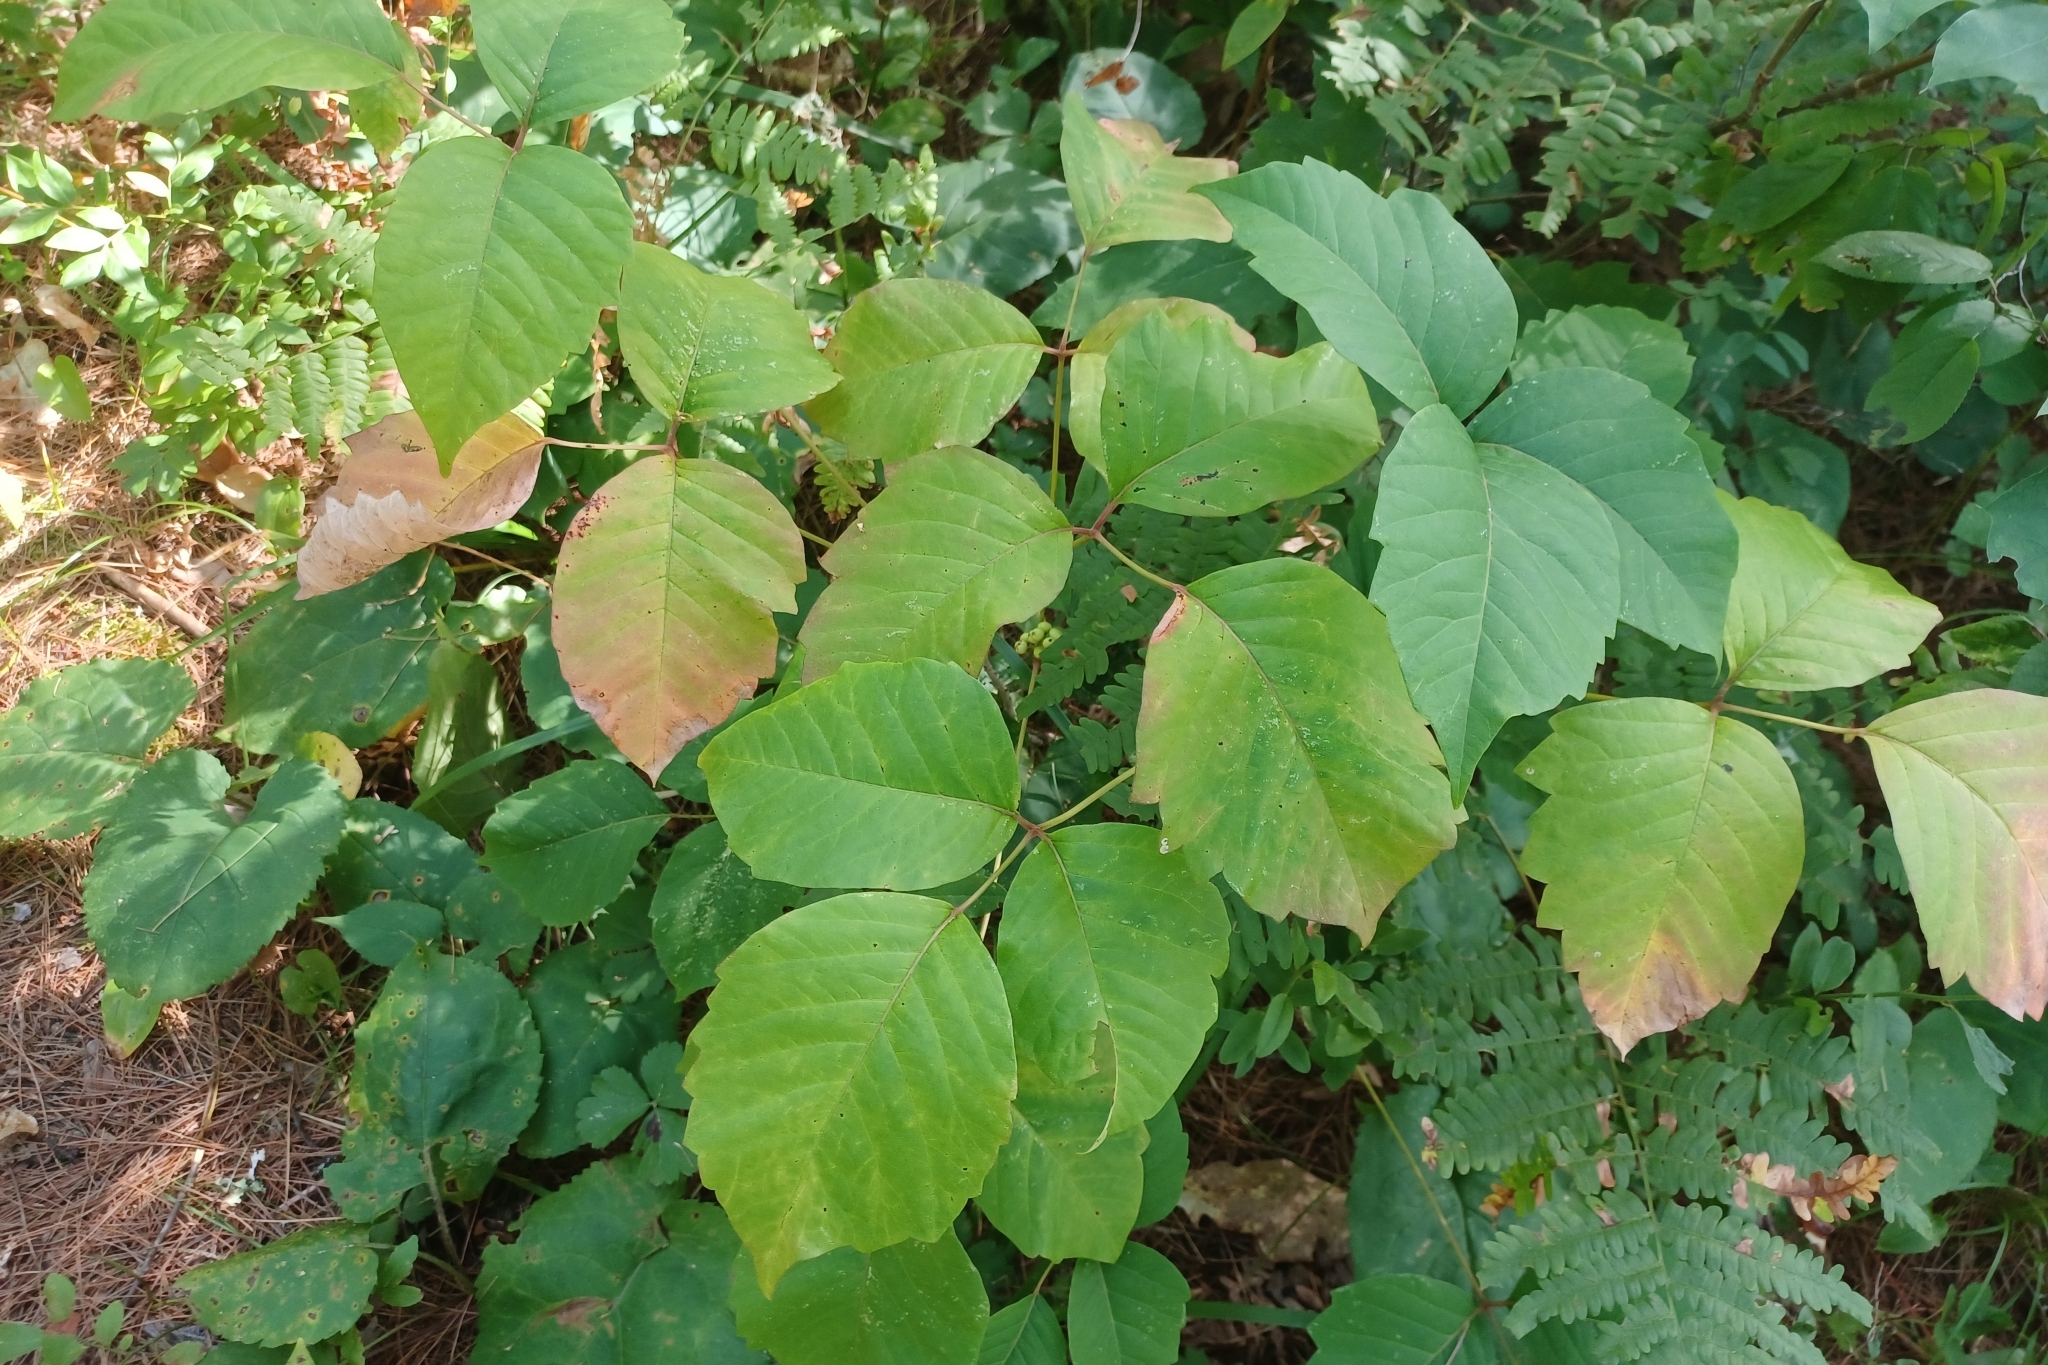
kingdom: Plantae
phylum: Tracheophyta
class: Magnoliopsida
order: Sapindales
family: Anacardiaceae
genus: Toxicodendron
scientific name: Toxicodendron rydbergii
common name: Rydberg's poison-ivy
